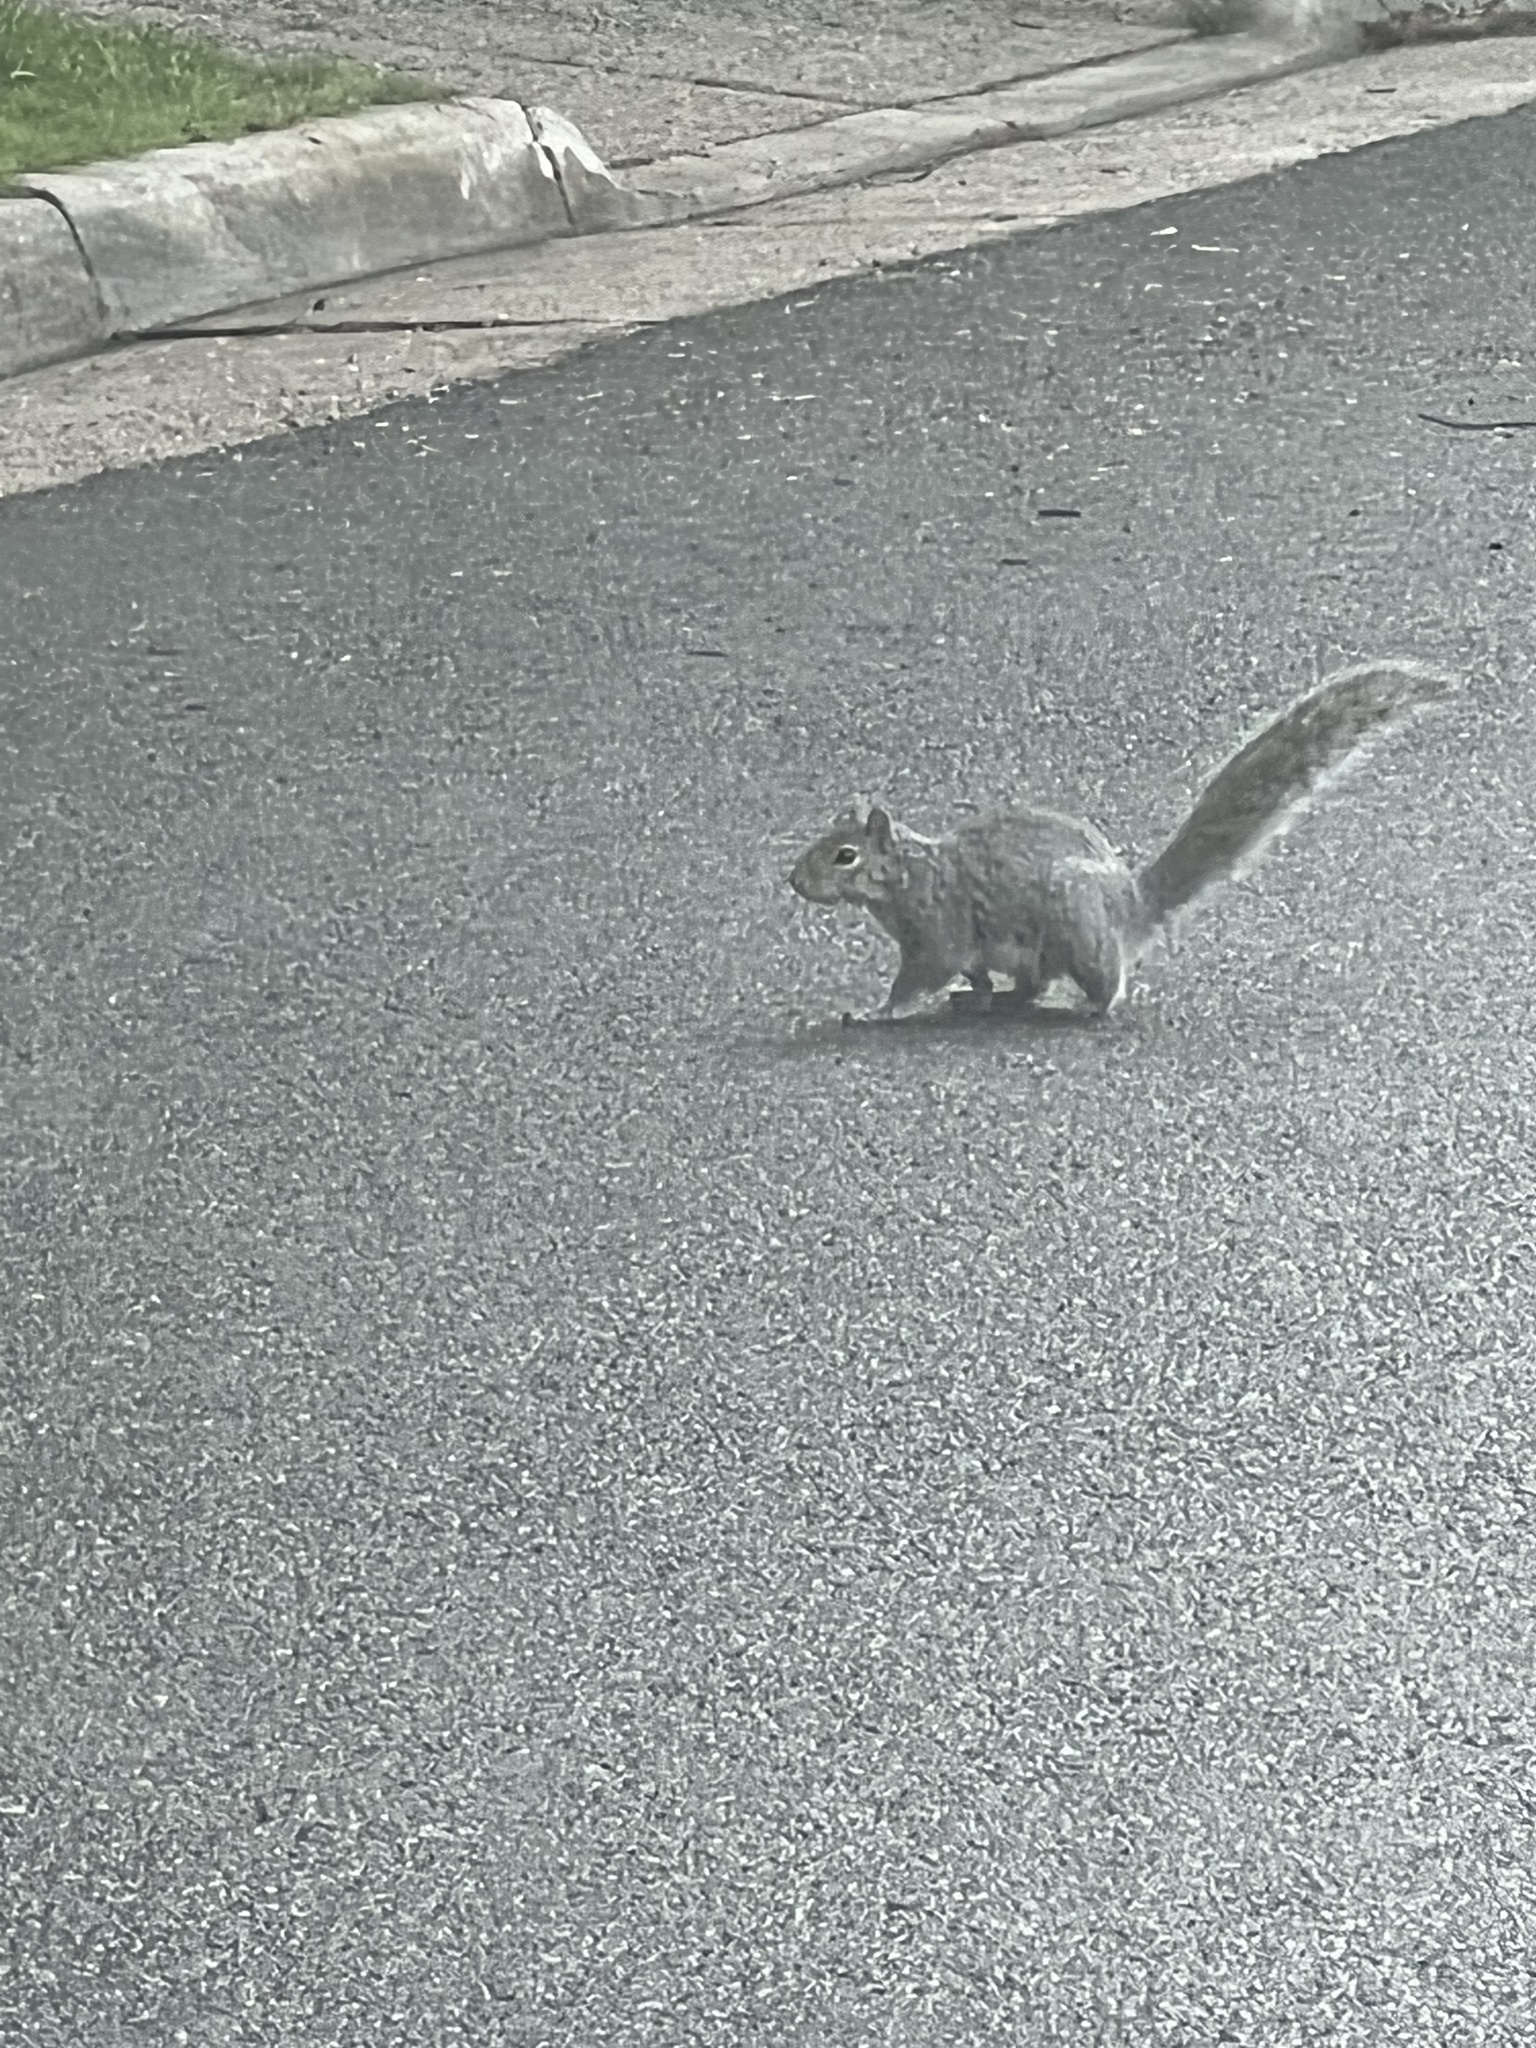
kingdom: Animalia
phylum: Chordata
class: Mammalia
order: Rodentia
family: Sciuridae
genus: Sciurus
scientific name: Sciurus carolinensis
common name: Eastern gray squirrel
